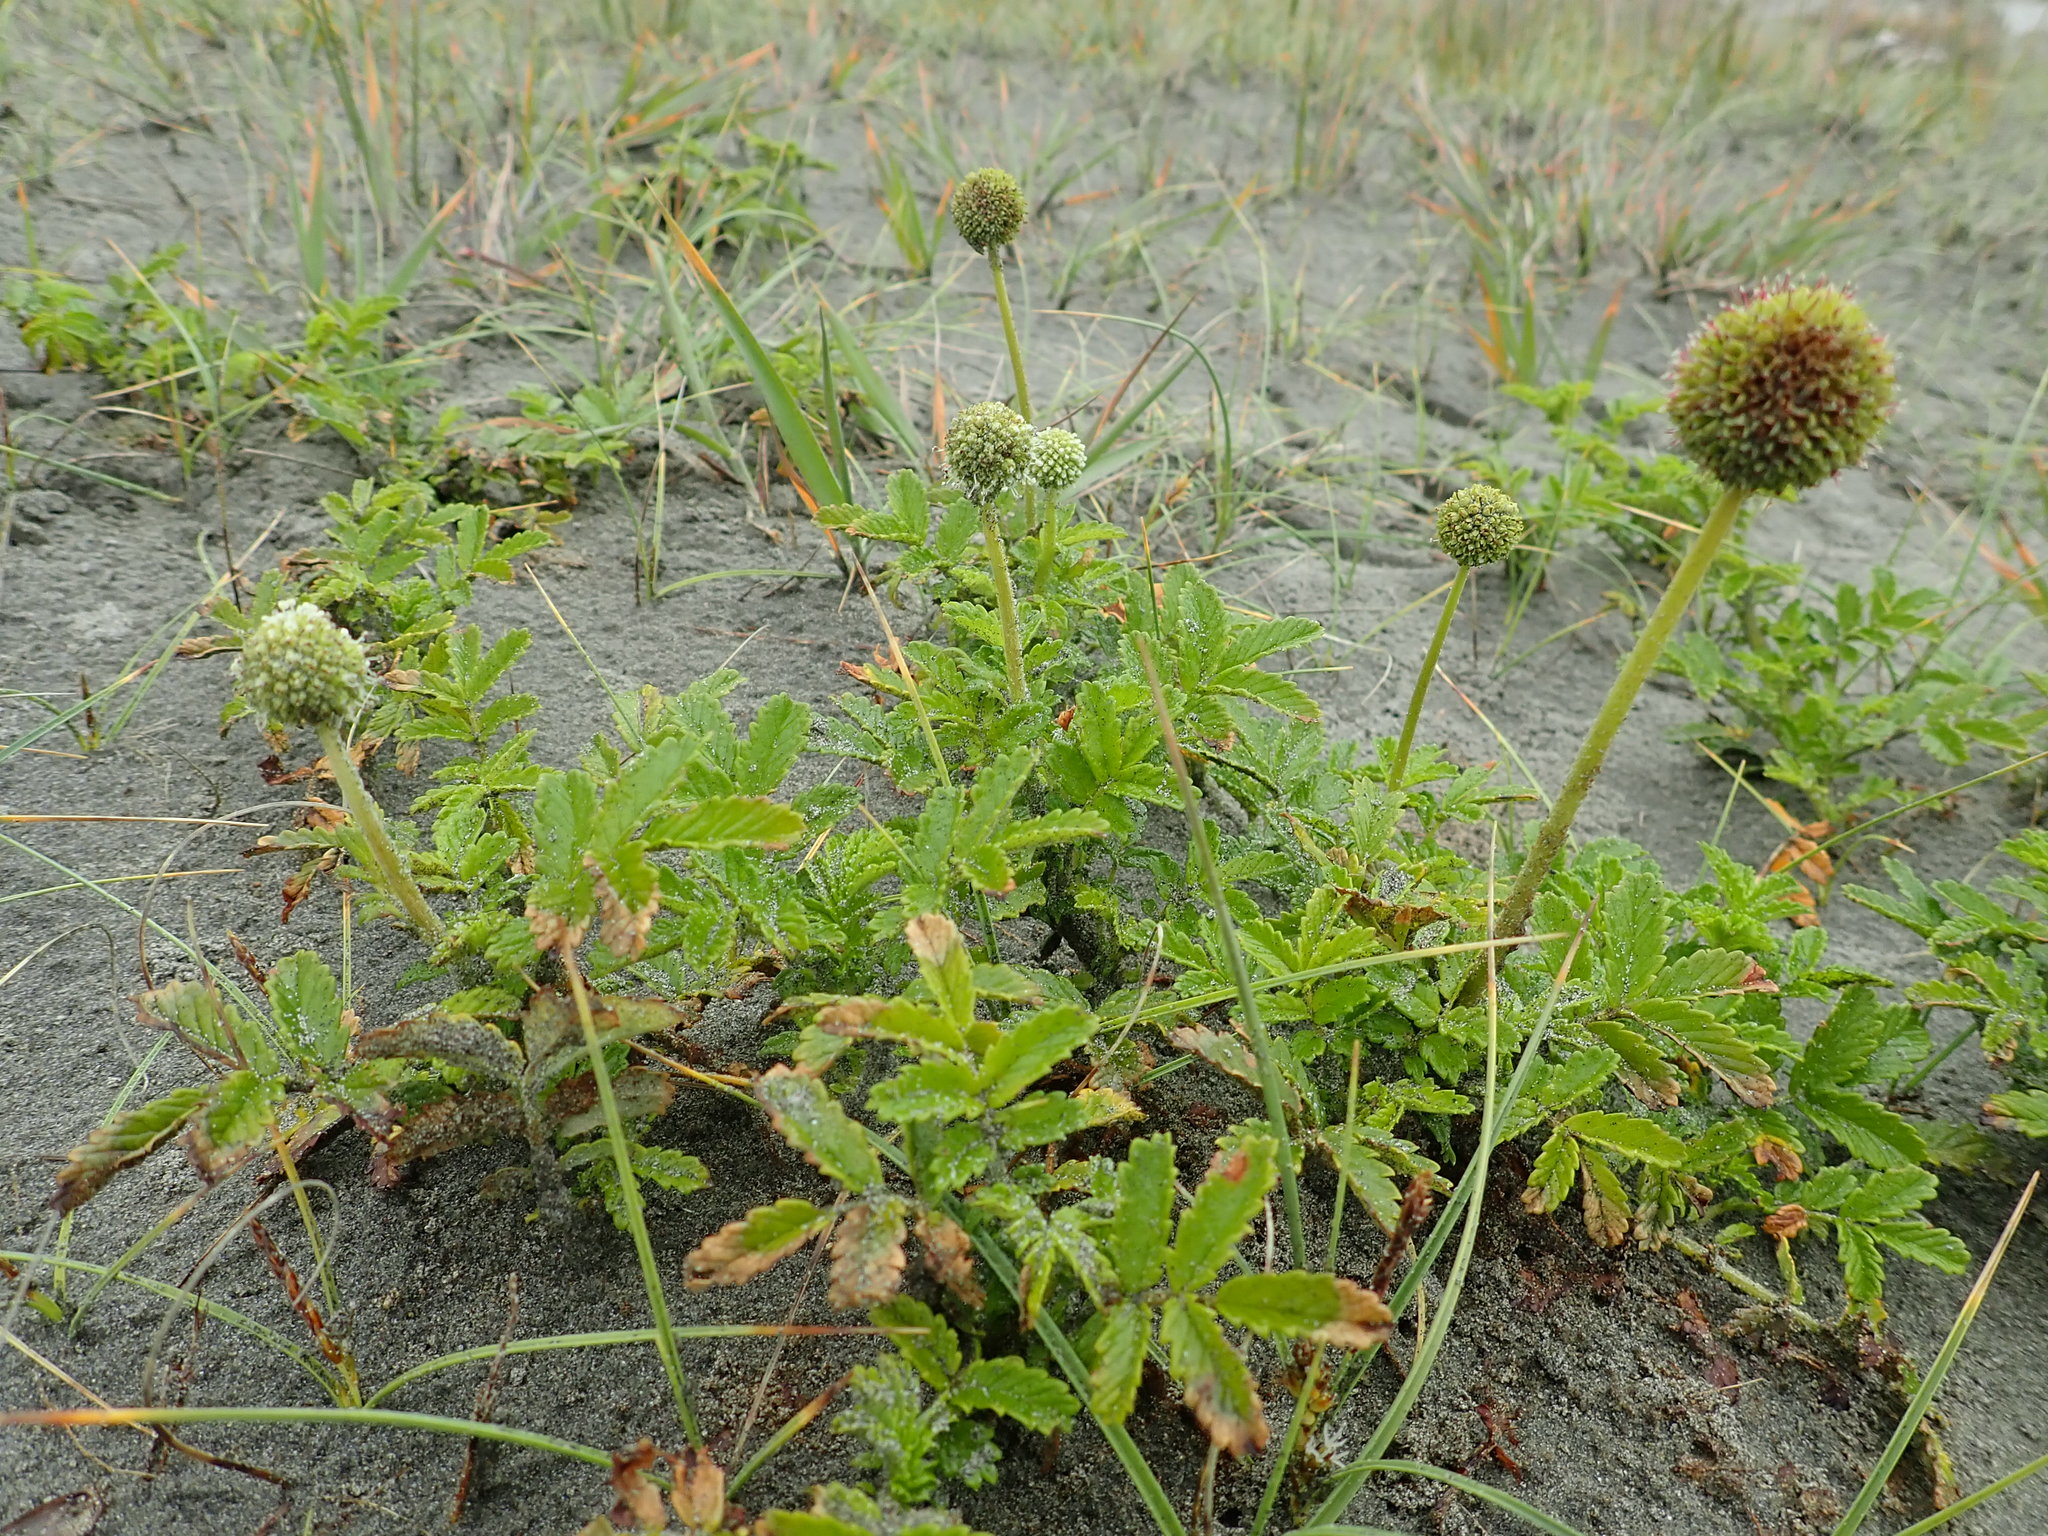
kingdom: Plantae
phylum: Tracheophyta
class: Magnoliopsida
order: Rosales
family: Rosaceae
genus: Acaena
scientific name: Acaena novae-zelandiae
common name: Pirri-pirri-bur
